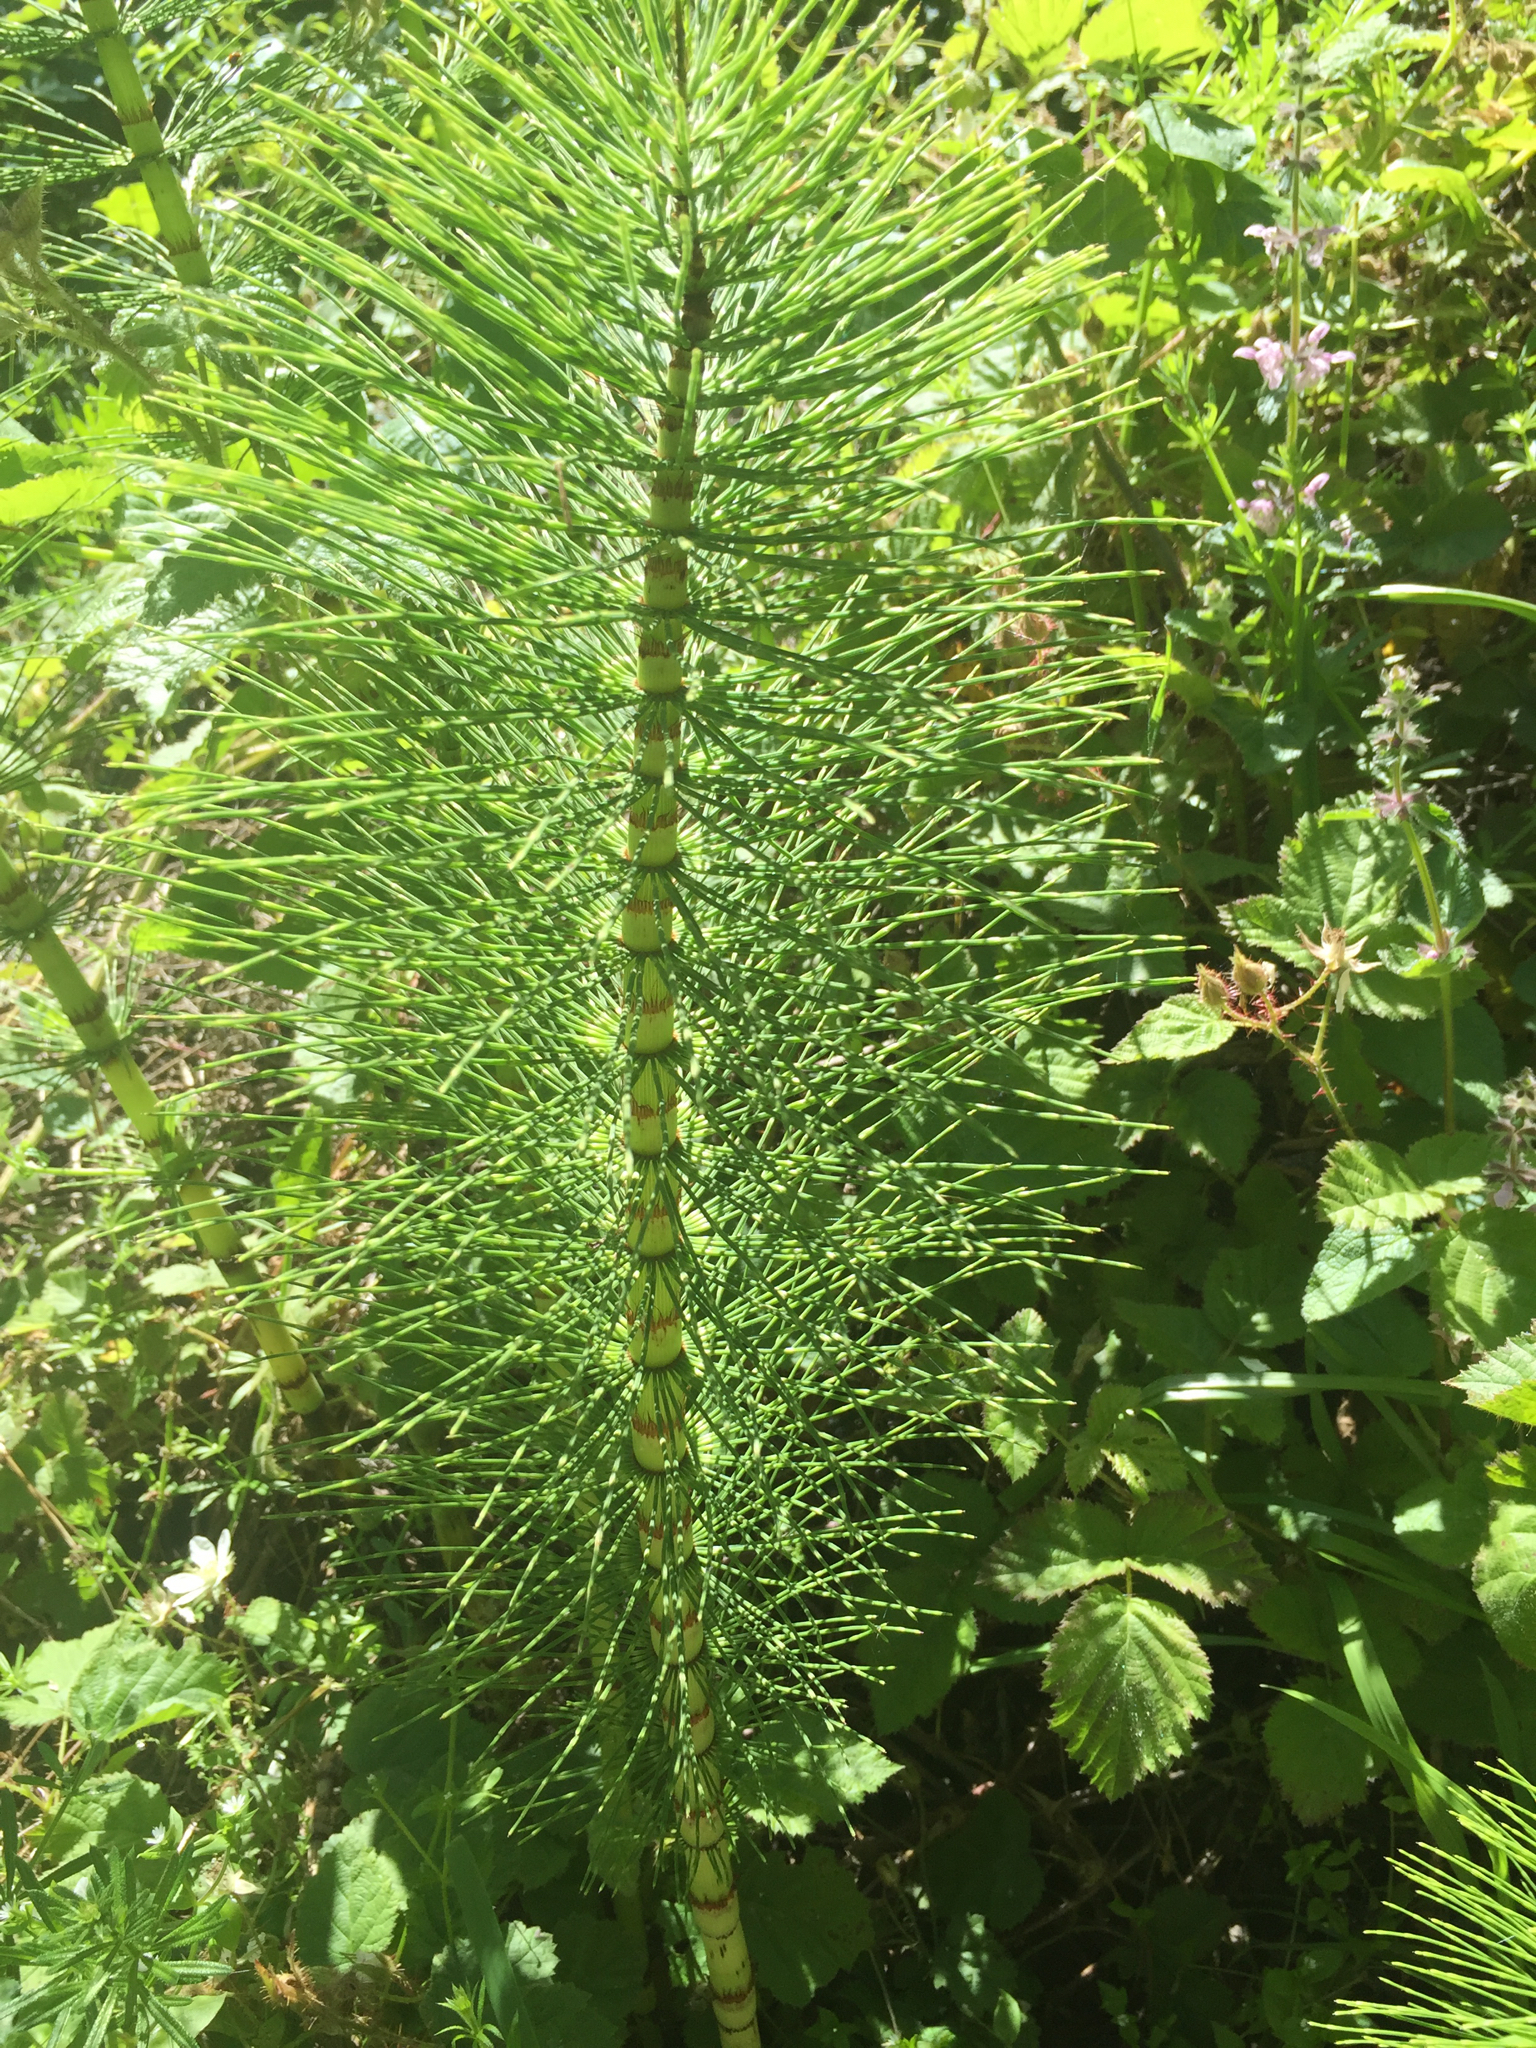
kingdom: Plantae
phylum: Tracheophyta
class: Polypodiopsida
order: Equisetales
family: Equisetaceae
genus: Equisetum
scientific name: Equisetum telmateia
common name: Great horsetail
